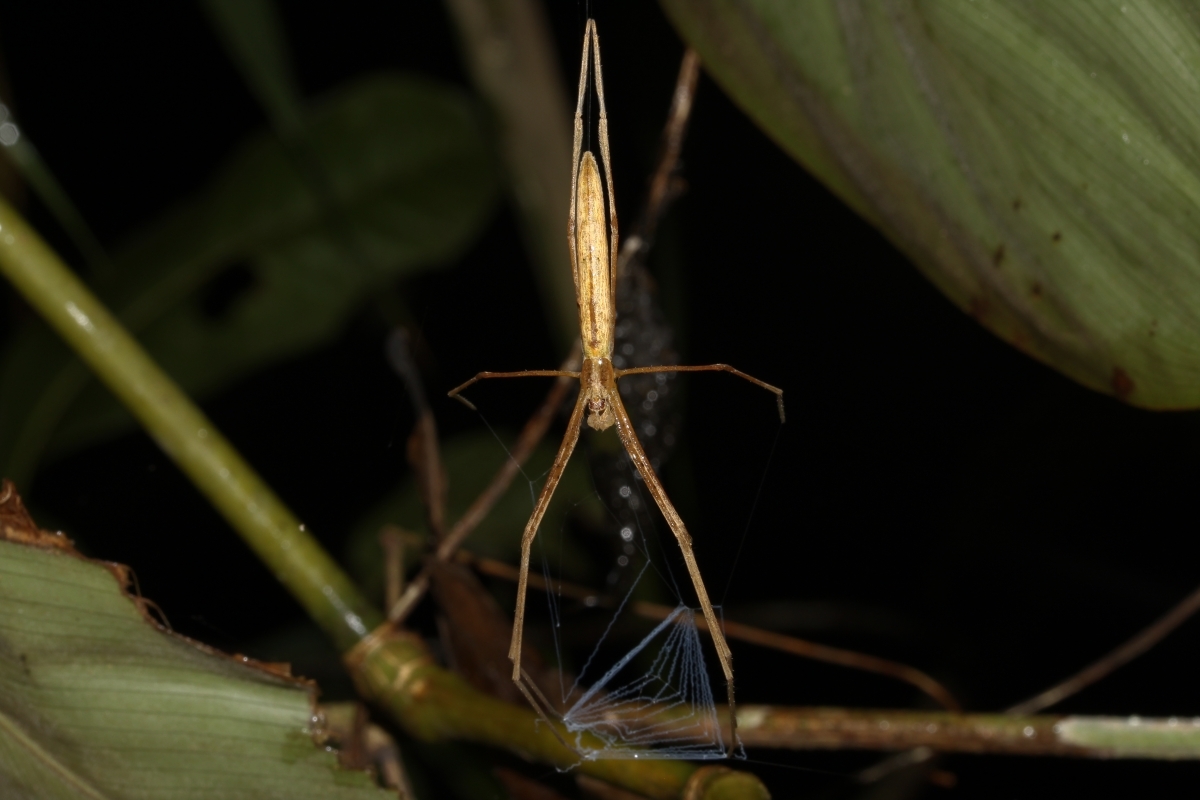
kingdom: Animalia
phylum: Arthropoda
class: Arachnida
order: Araneae
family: Deinopidae
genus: Deinopis
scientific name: Deinopis
